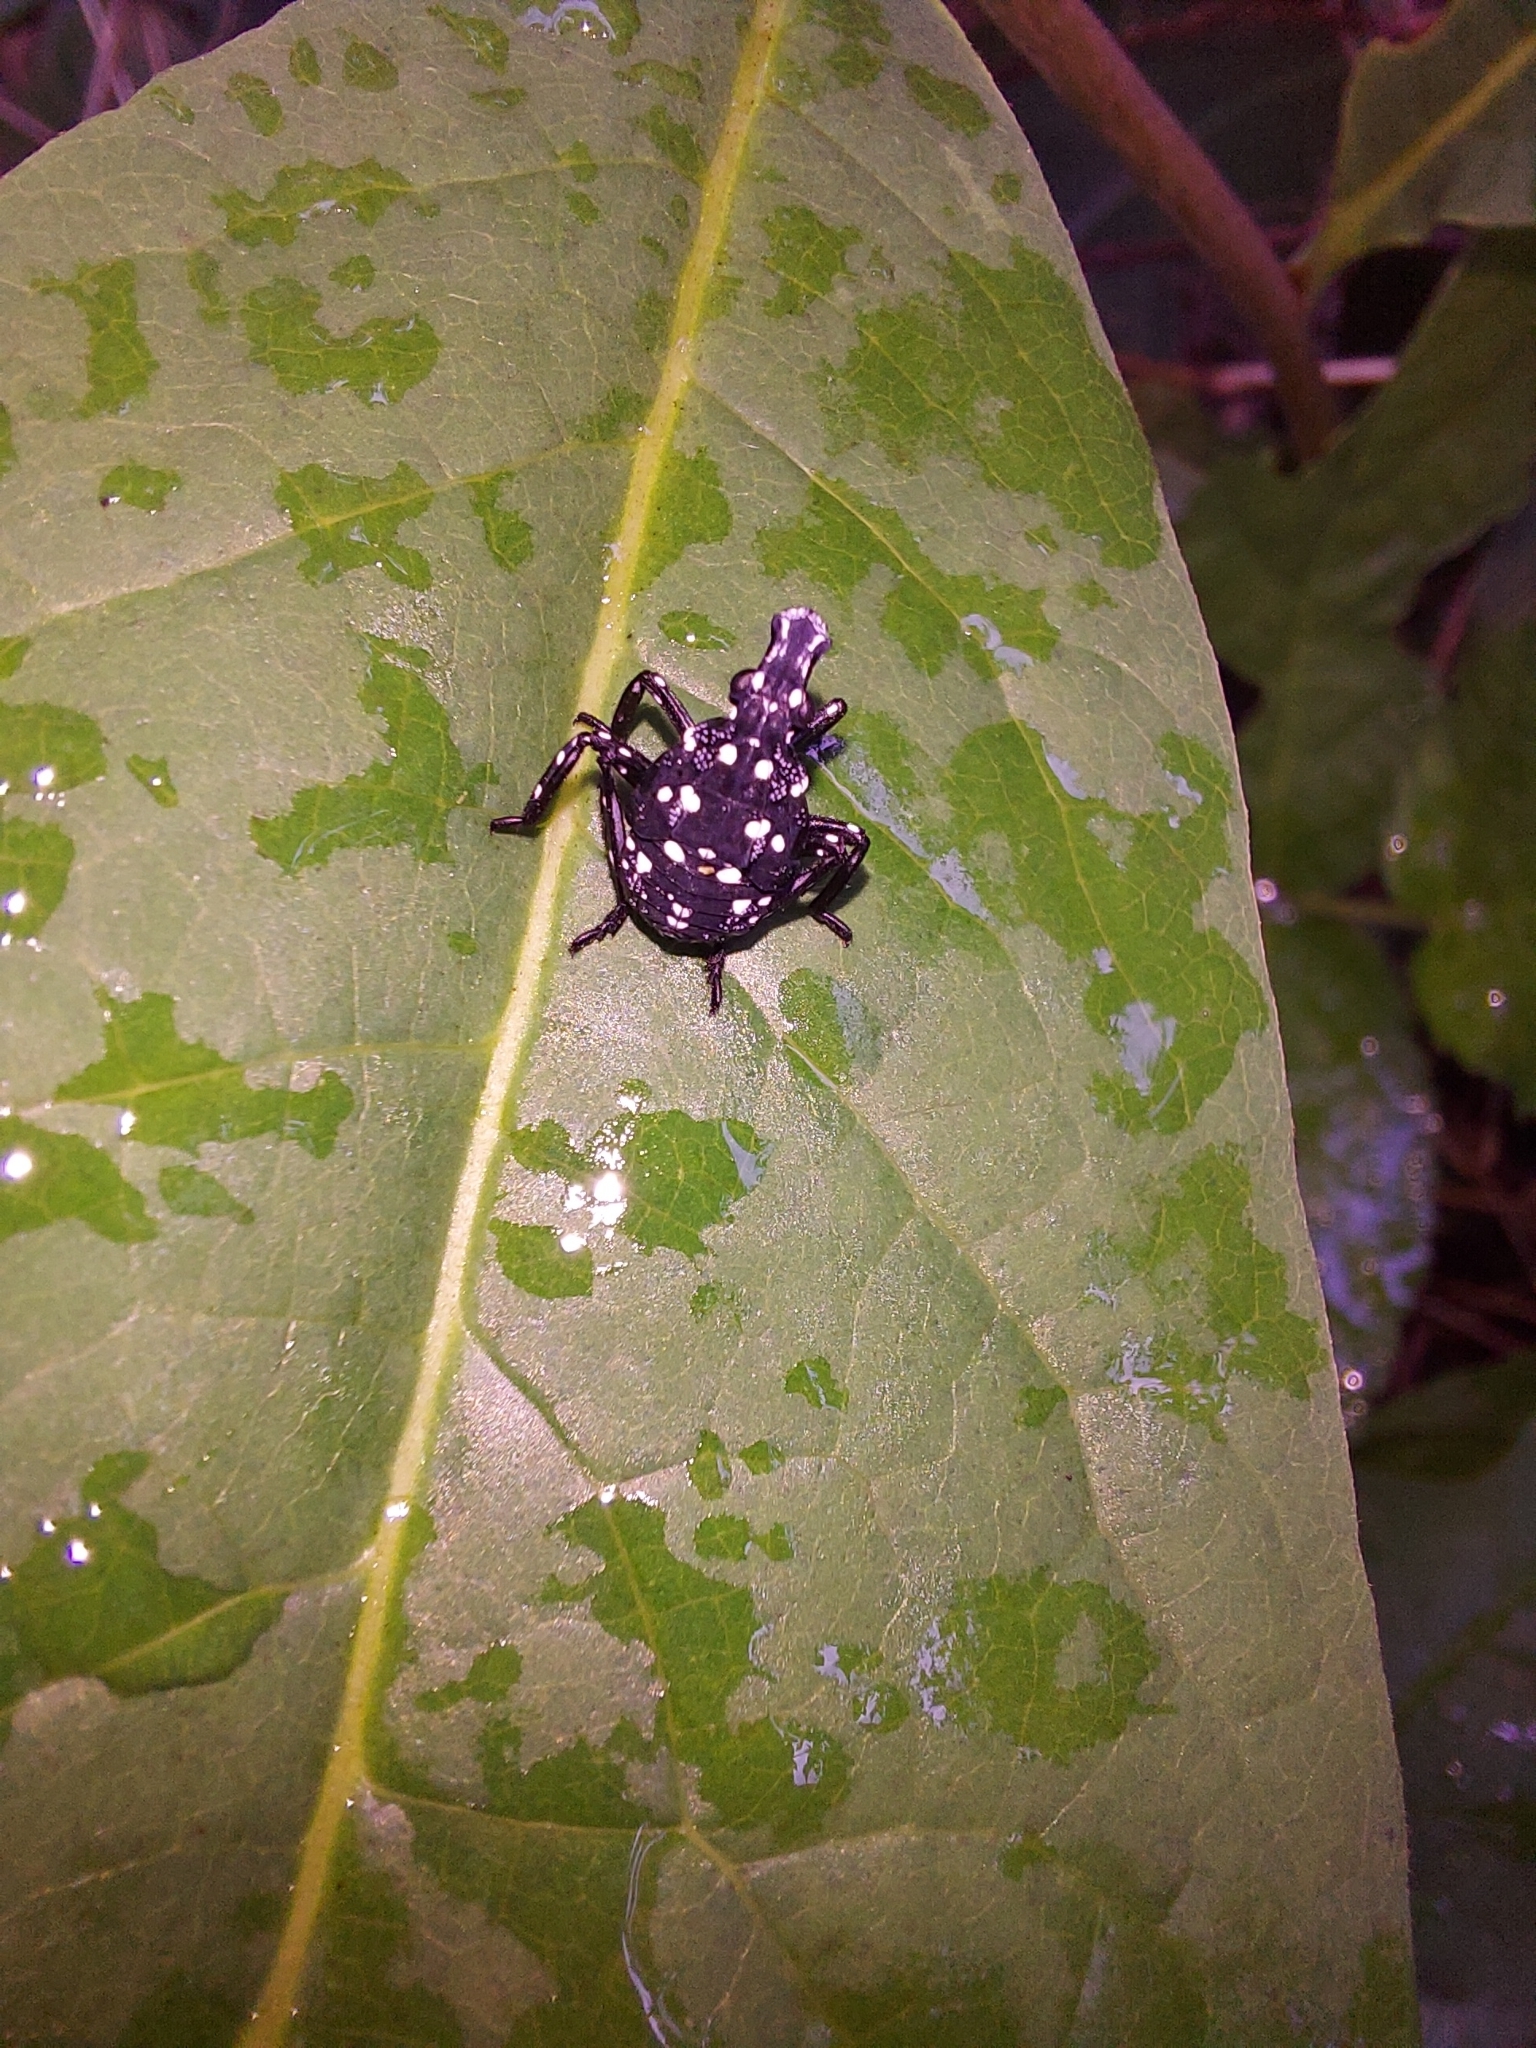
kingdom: Animalia
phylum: Arthropoda
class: Insecta
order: Hemiptera
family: Fulgoridae
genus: Lycorma
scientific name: Lycorma delicatula
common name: Spotted lanternfly
